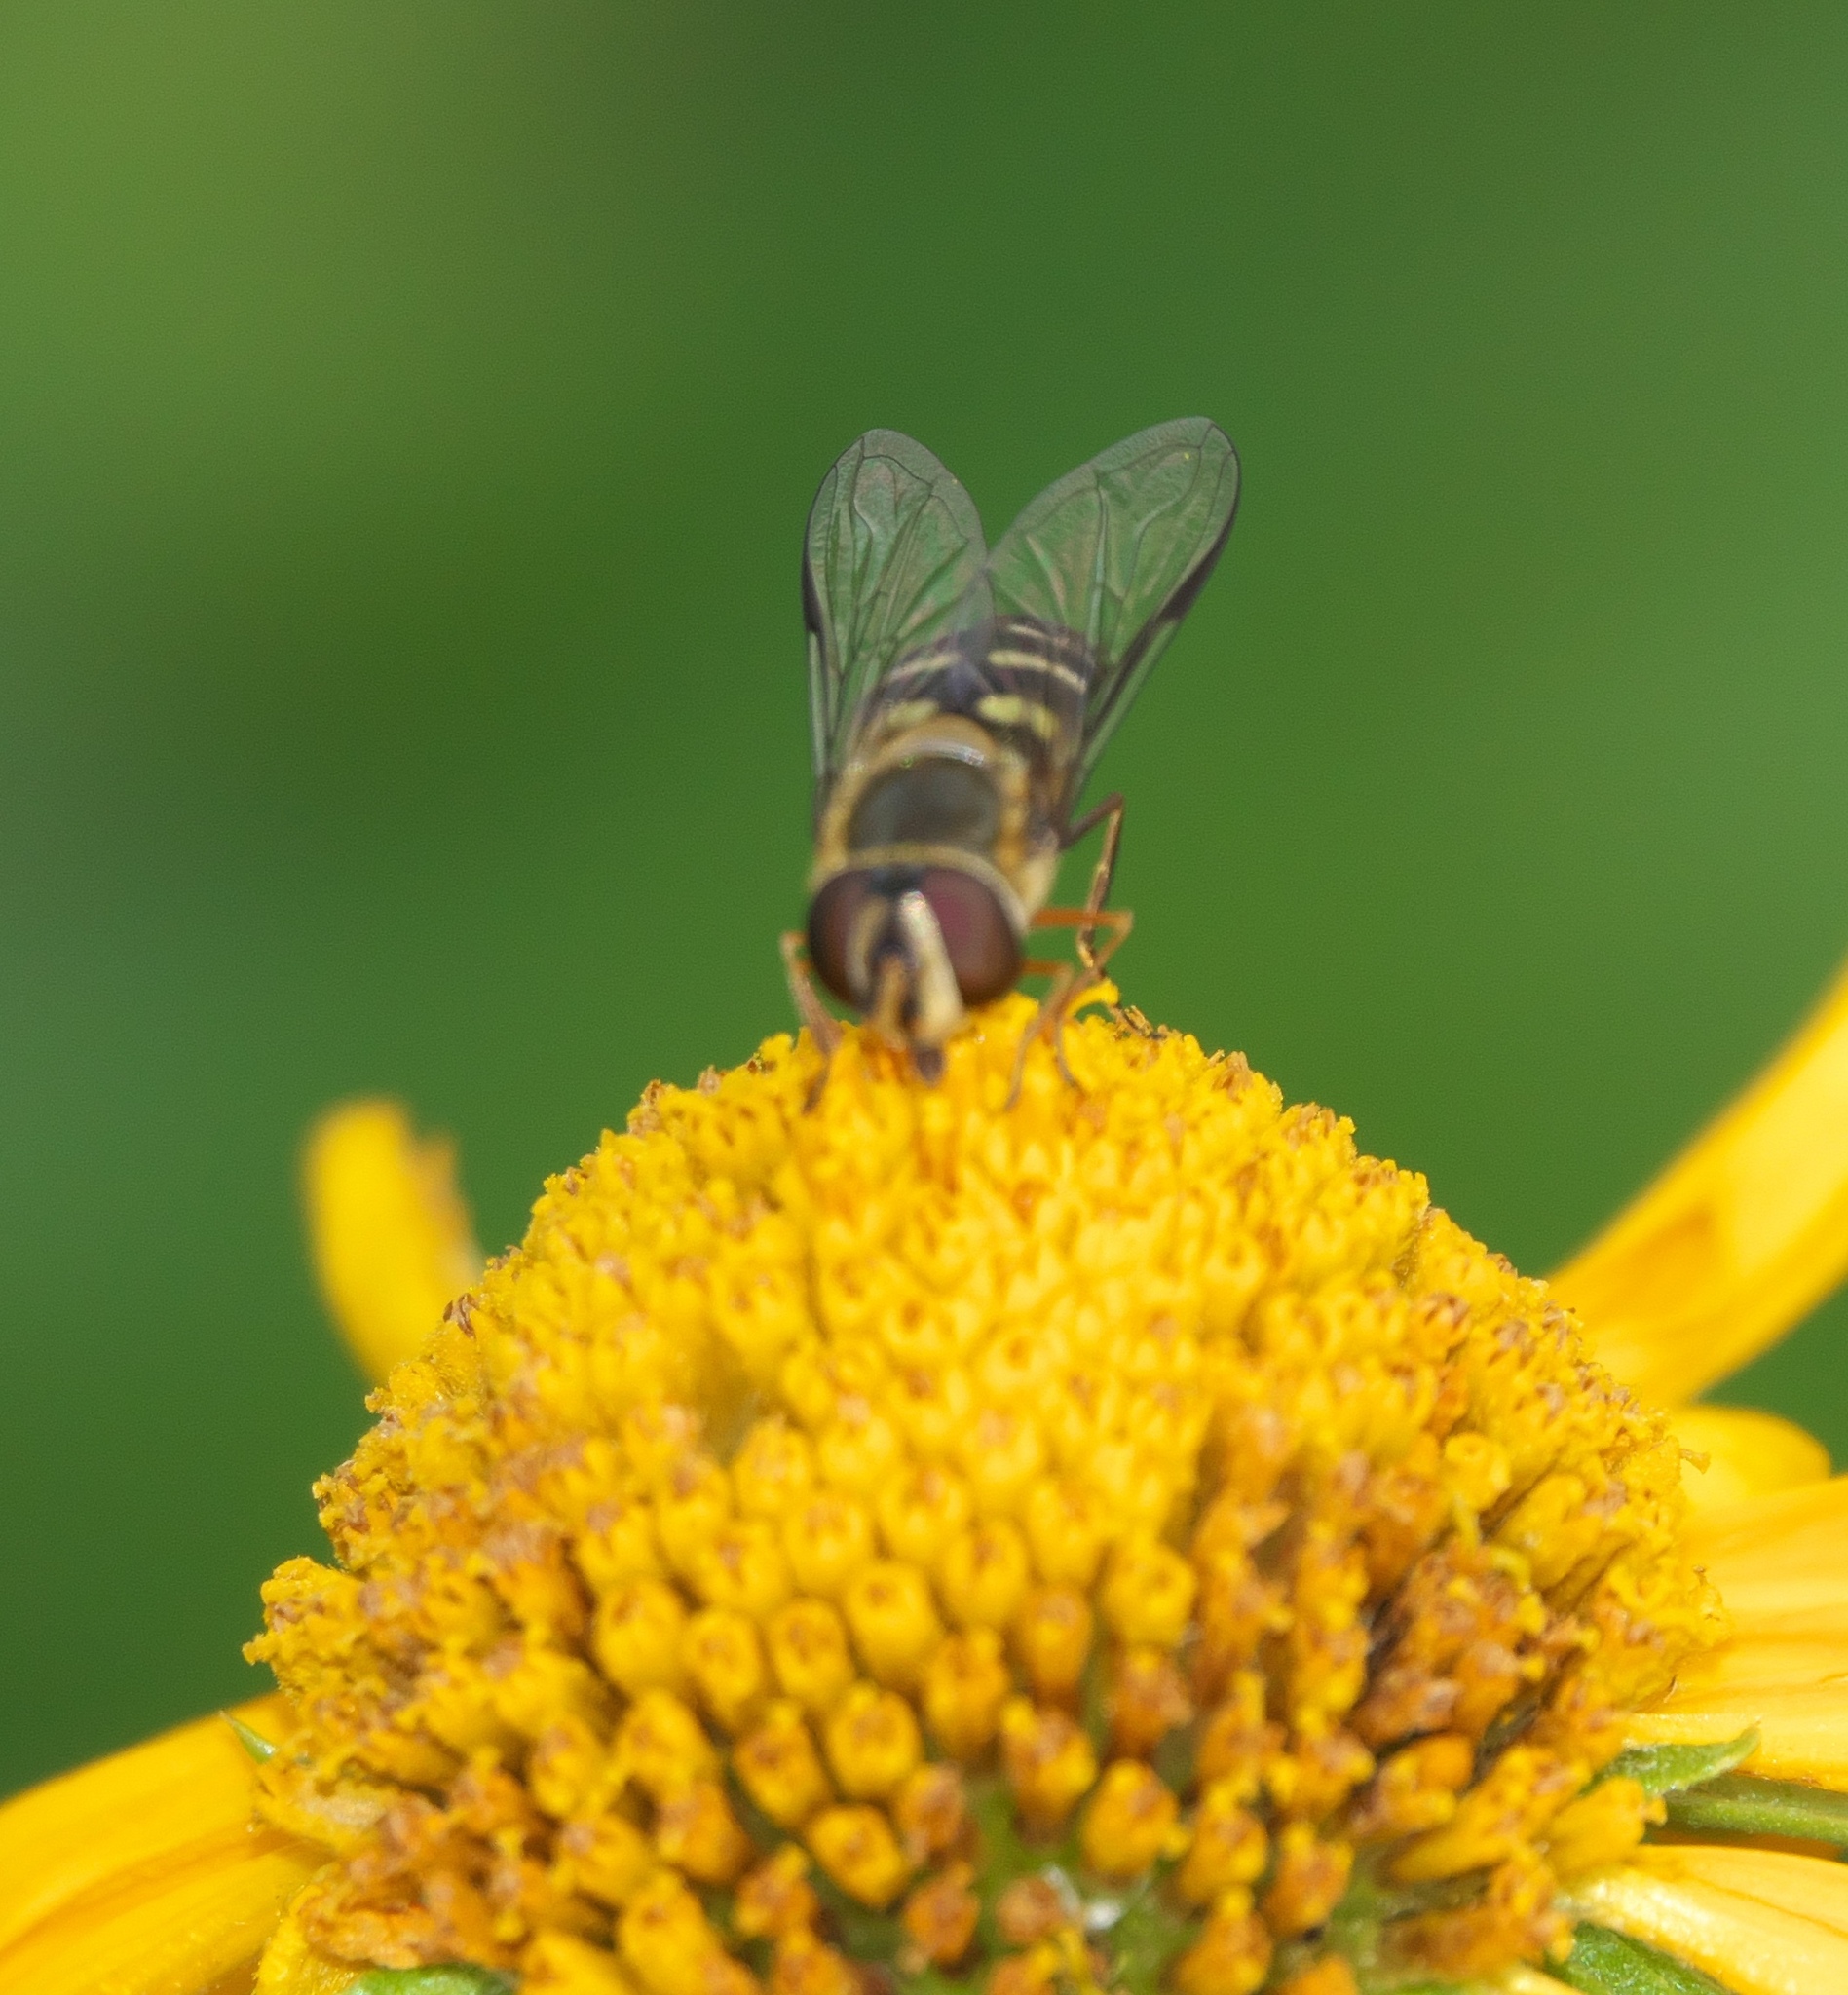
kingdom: Animalia
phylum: Arthropoda
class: Insecta
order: Diptera
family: Syrphidae
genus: Lapposyrphus
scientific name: Lapposyrphus lapponicus
